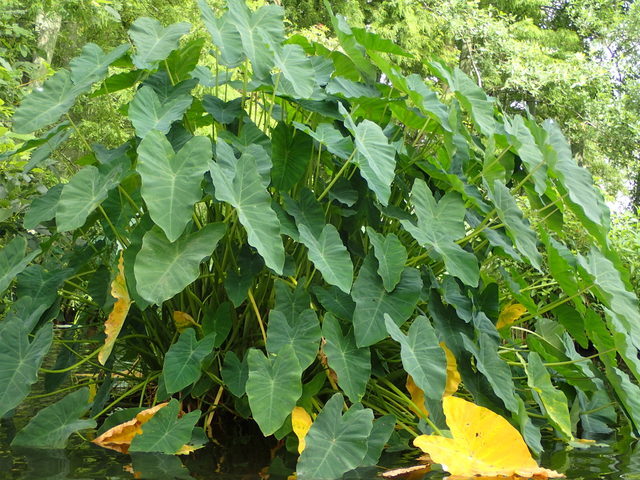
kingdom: Plantae
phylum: Tracheophyta
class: Liliopsida
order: Alismatales
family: Araceae
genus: Colocasia
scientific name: Colocasia esculenta
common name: Taro
